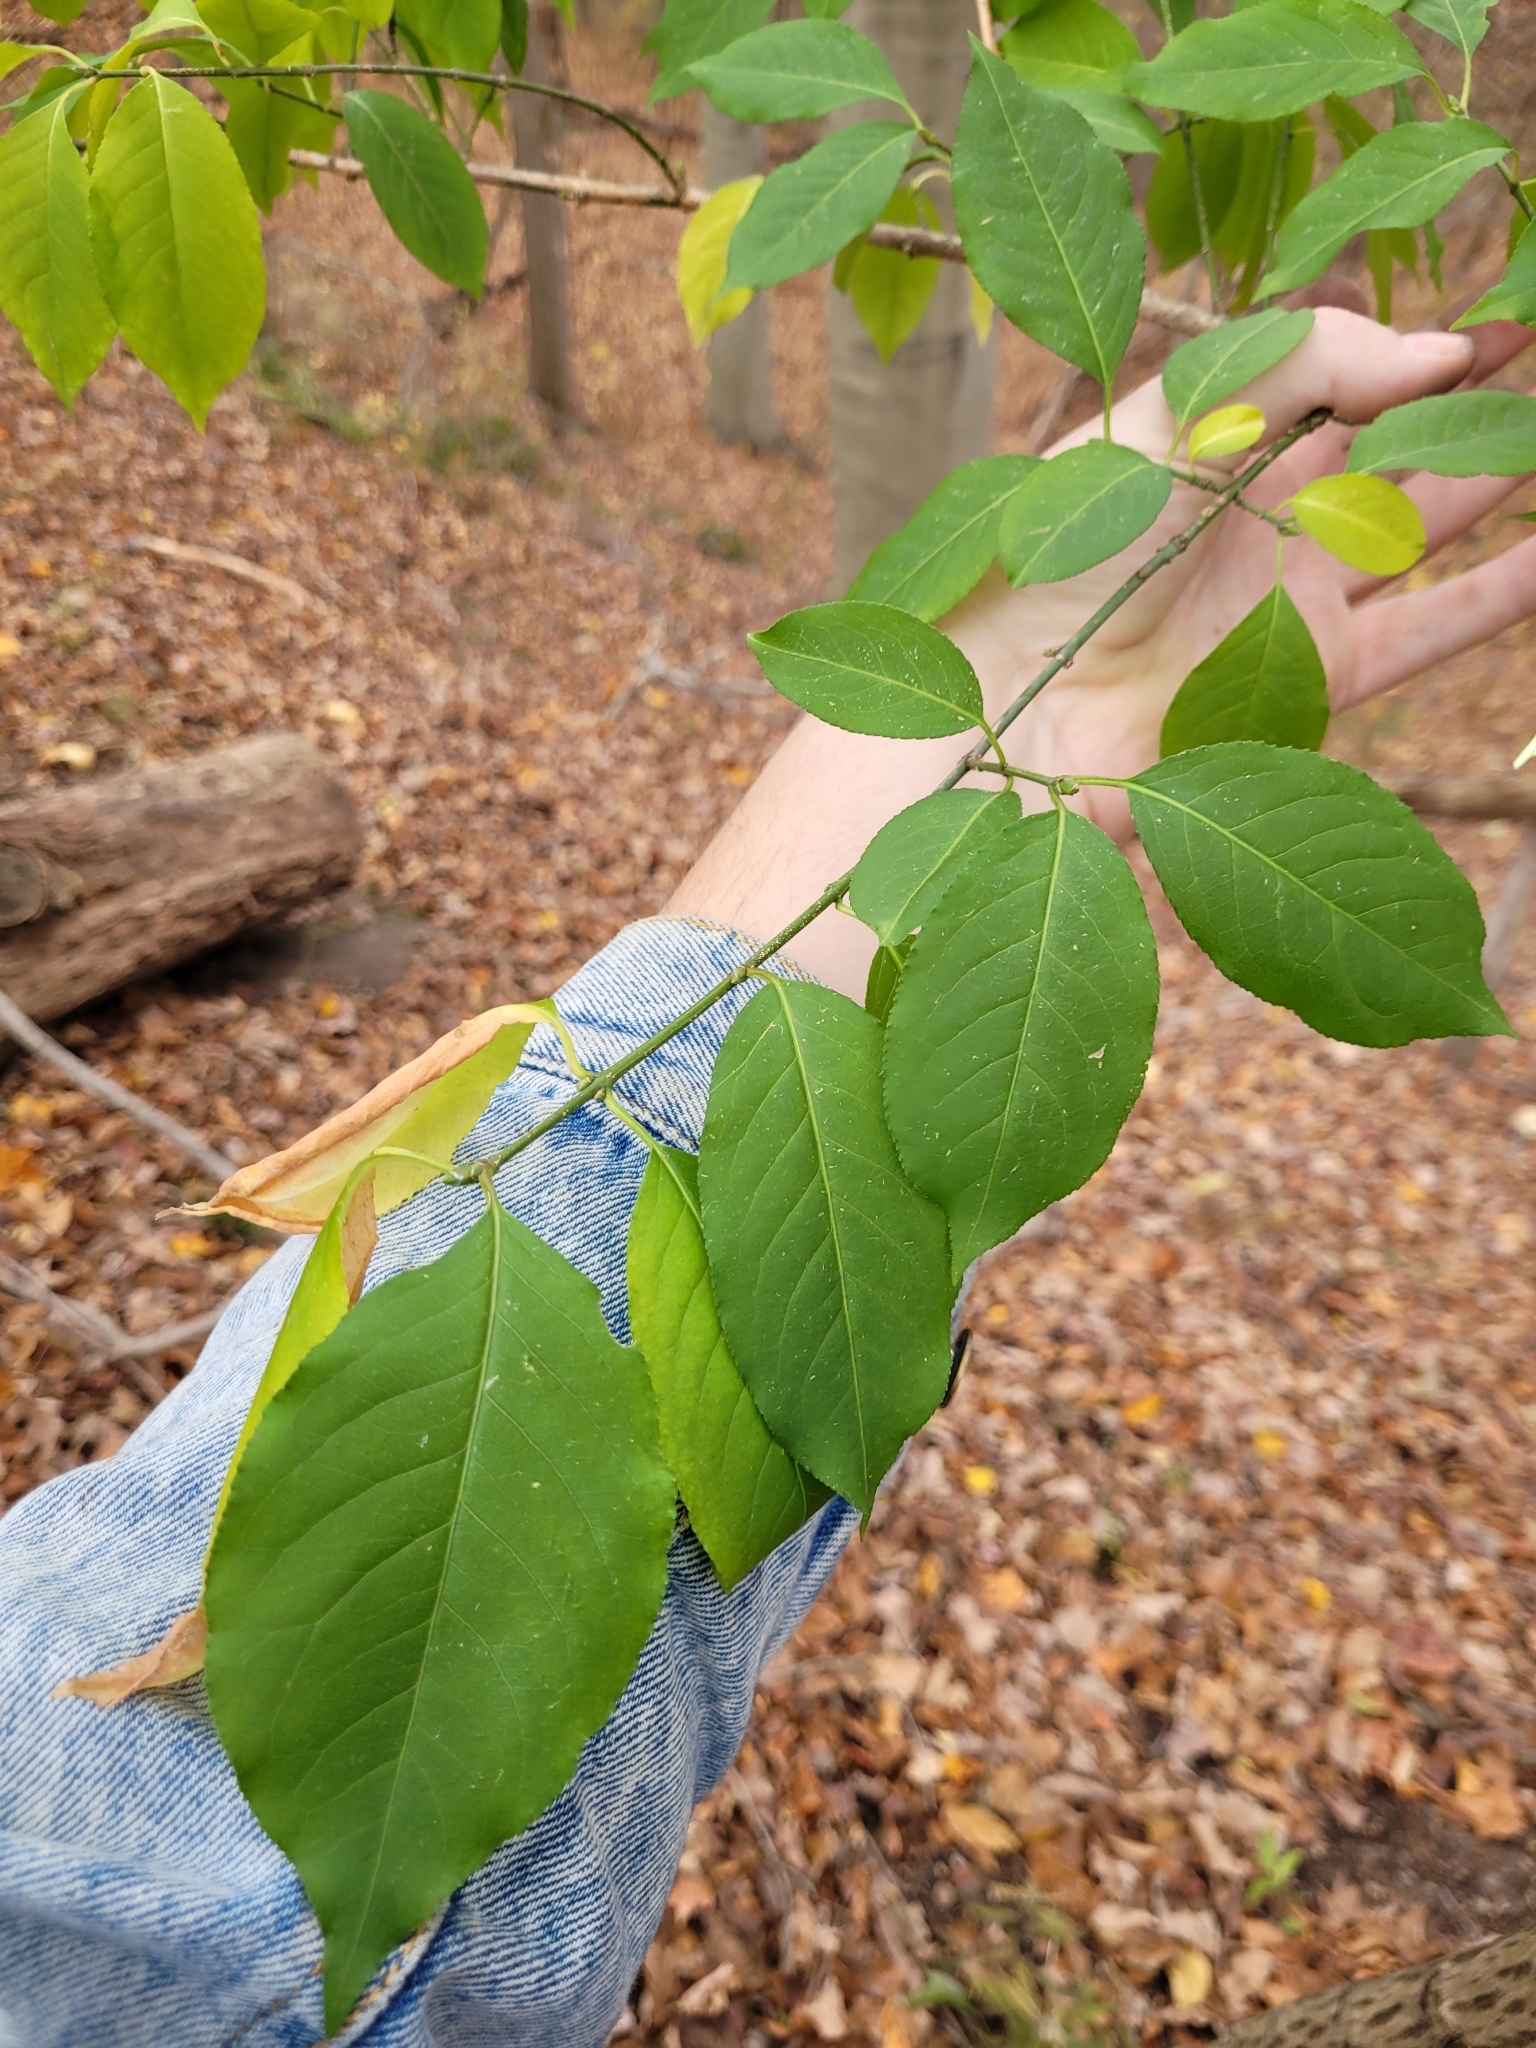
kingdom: Plantae
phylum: Tracheophyta
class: Magnoliopsida
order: Celastrales
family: Celastraceae
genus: Euonymus
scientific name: Euonymus europaeus
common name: Spindle
